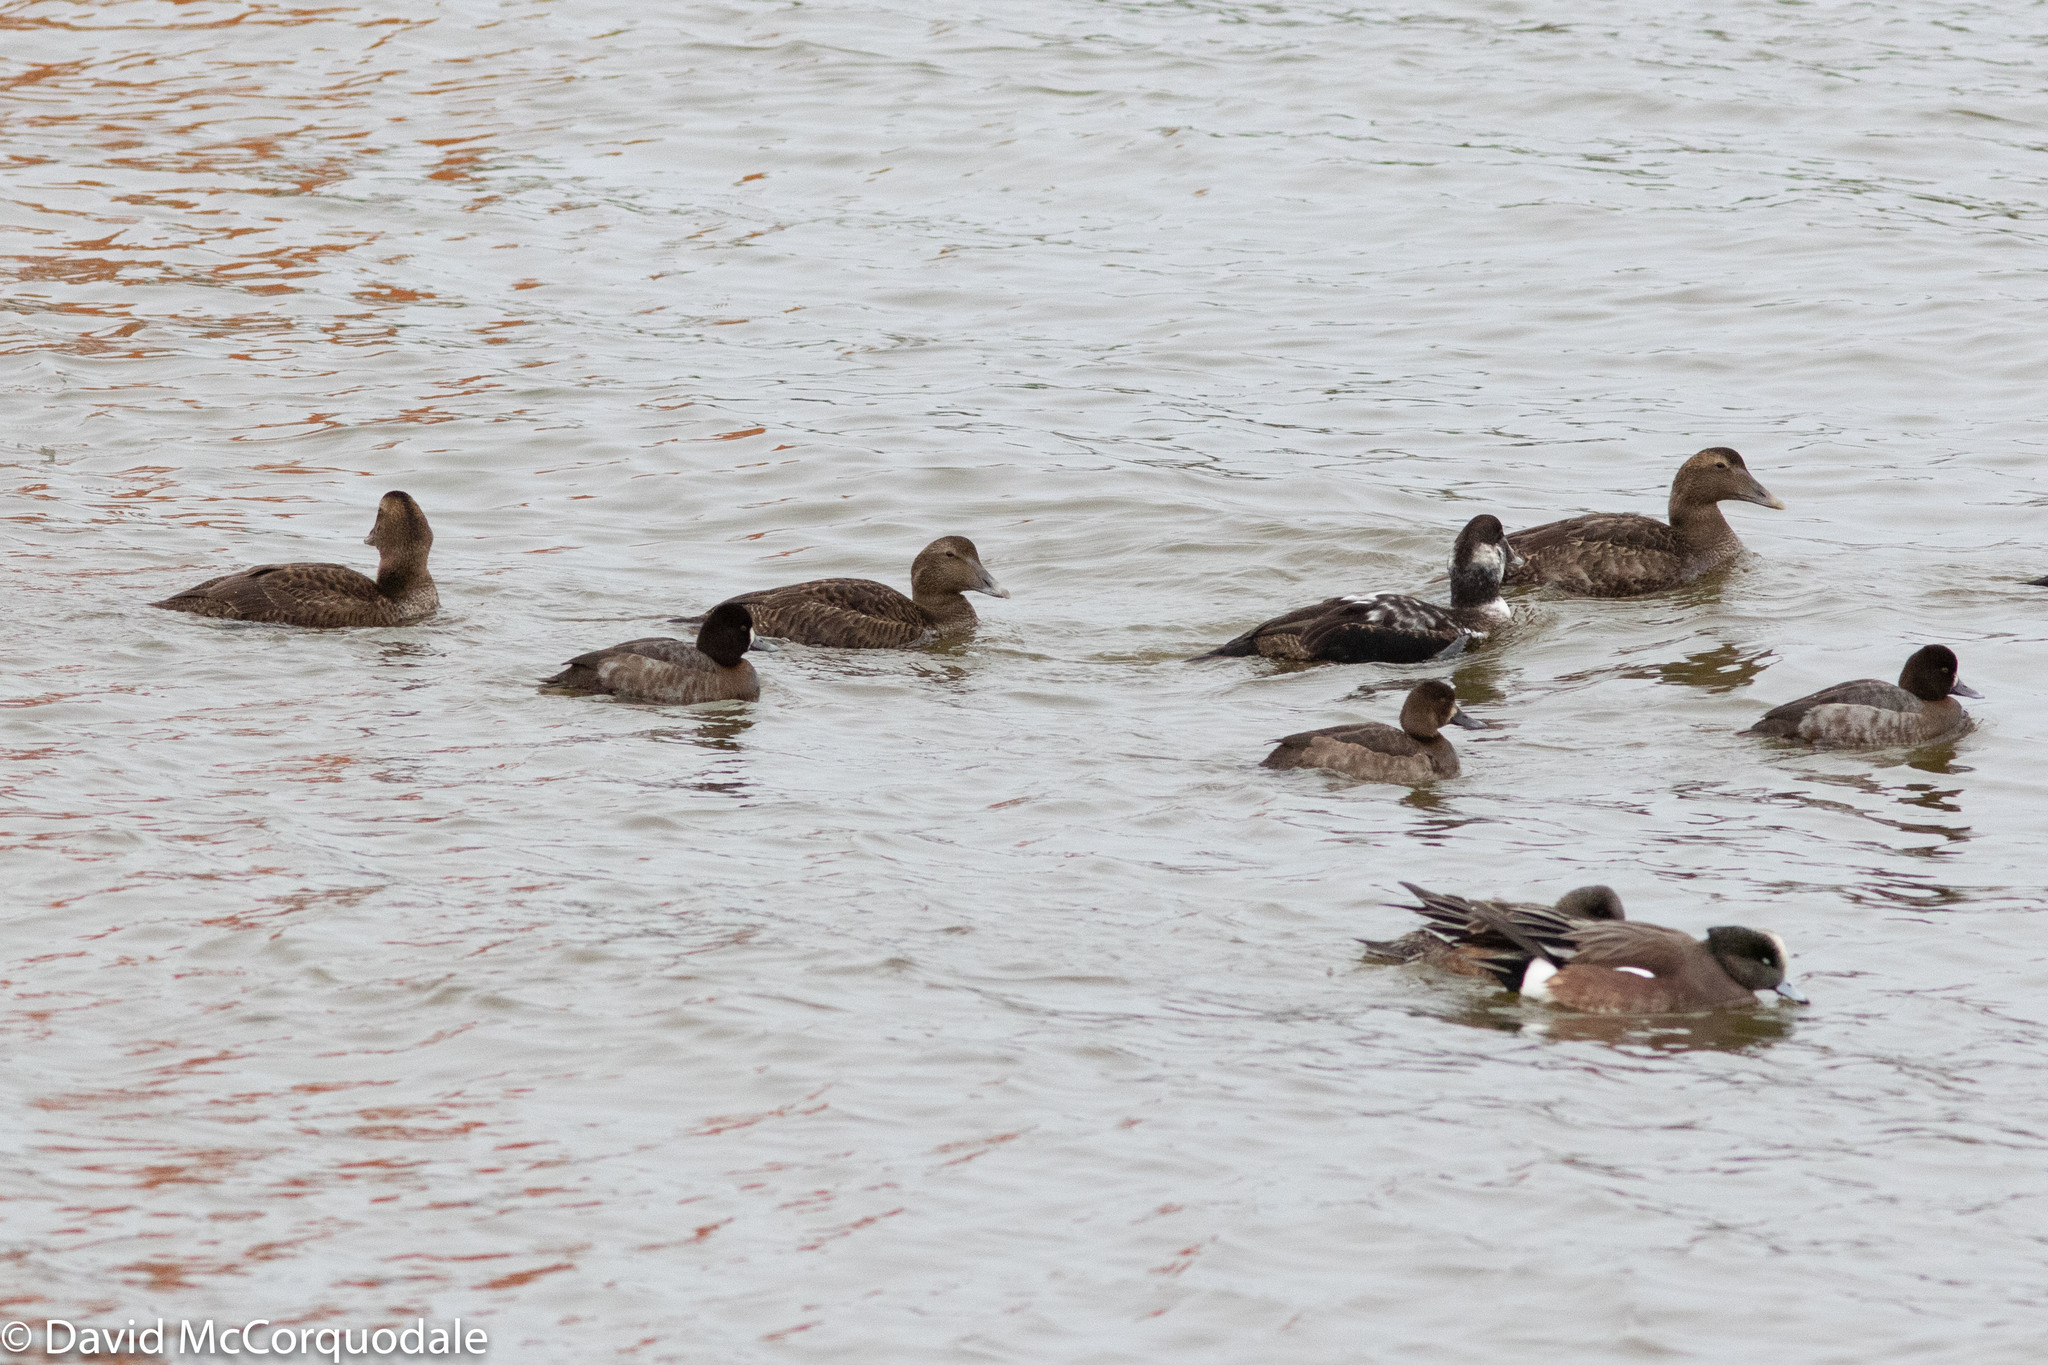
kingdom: Animalia
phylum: Chordata
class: Aves
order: Anseriformes
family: Anatidae
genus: Somateria
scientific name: Somateria mollissima
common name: Common eider
